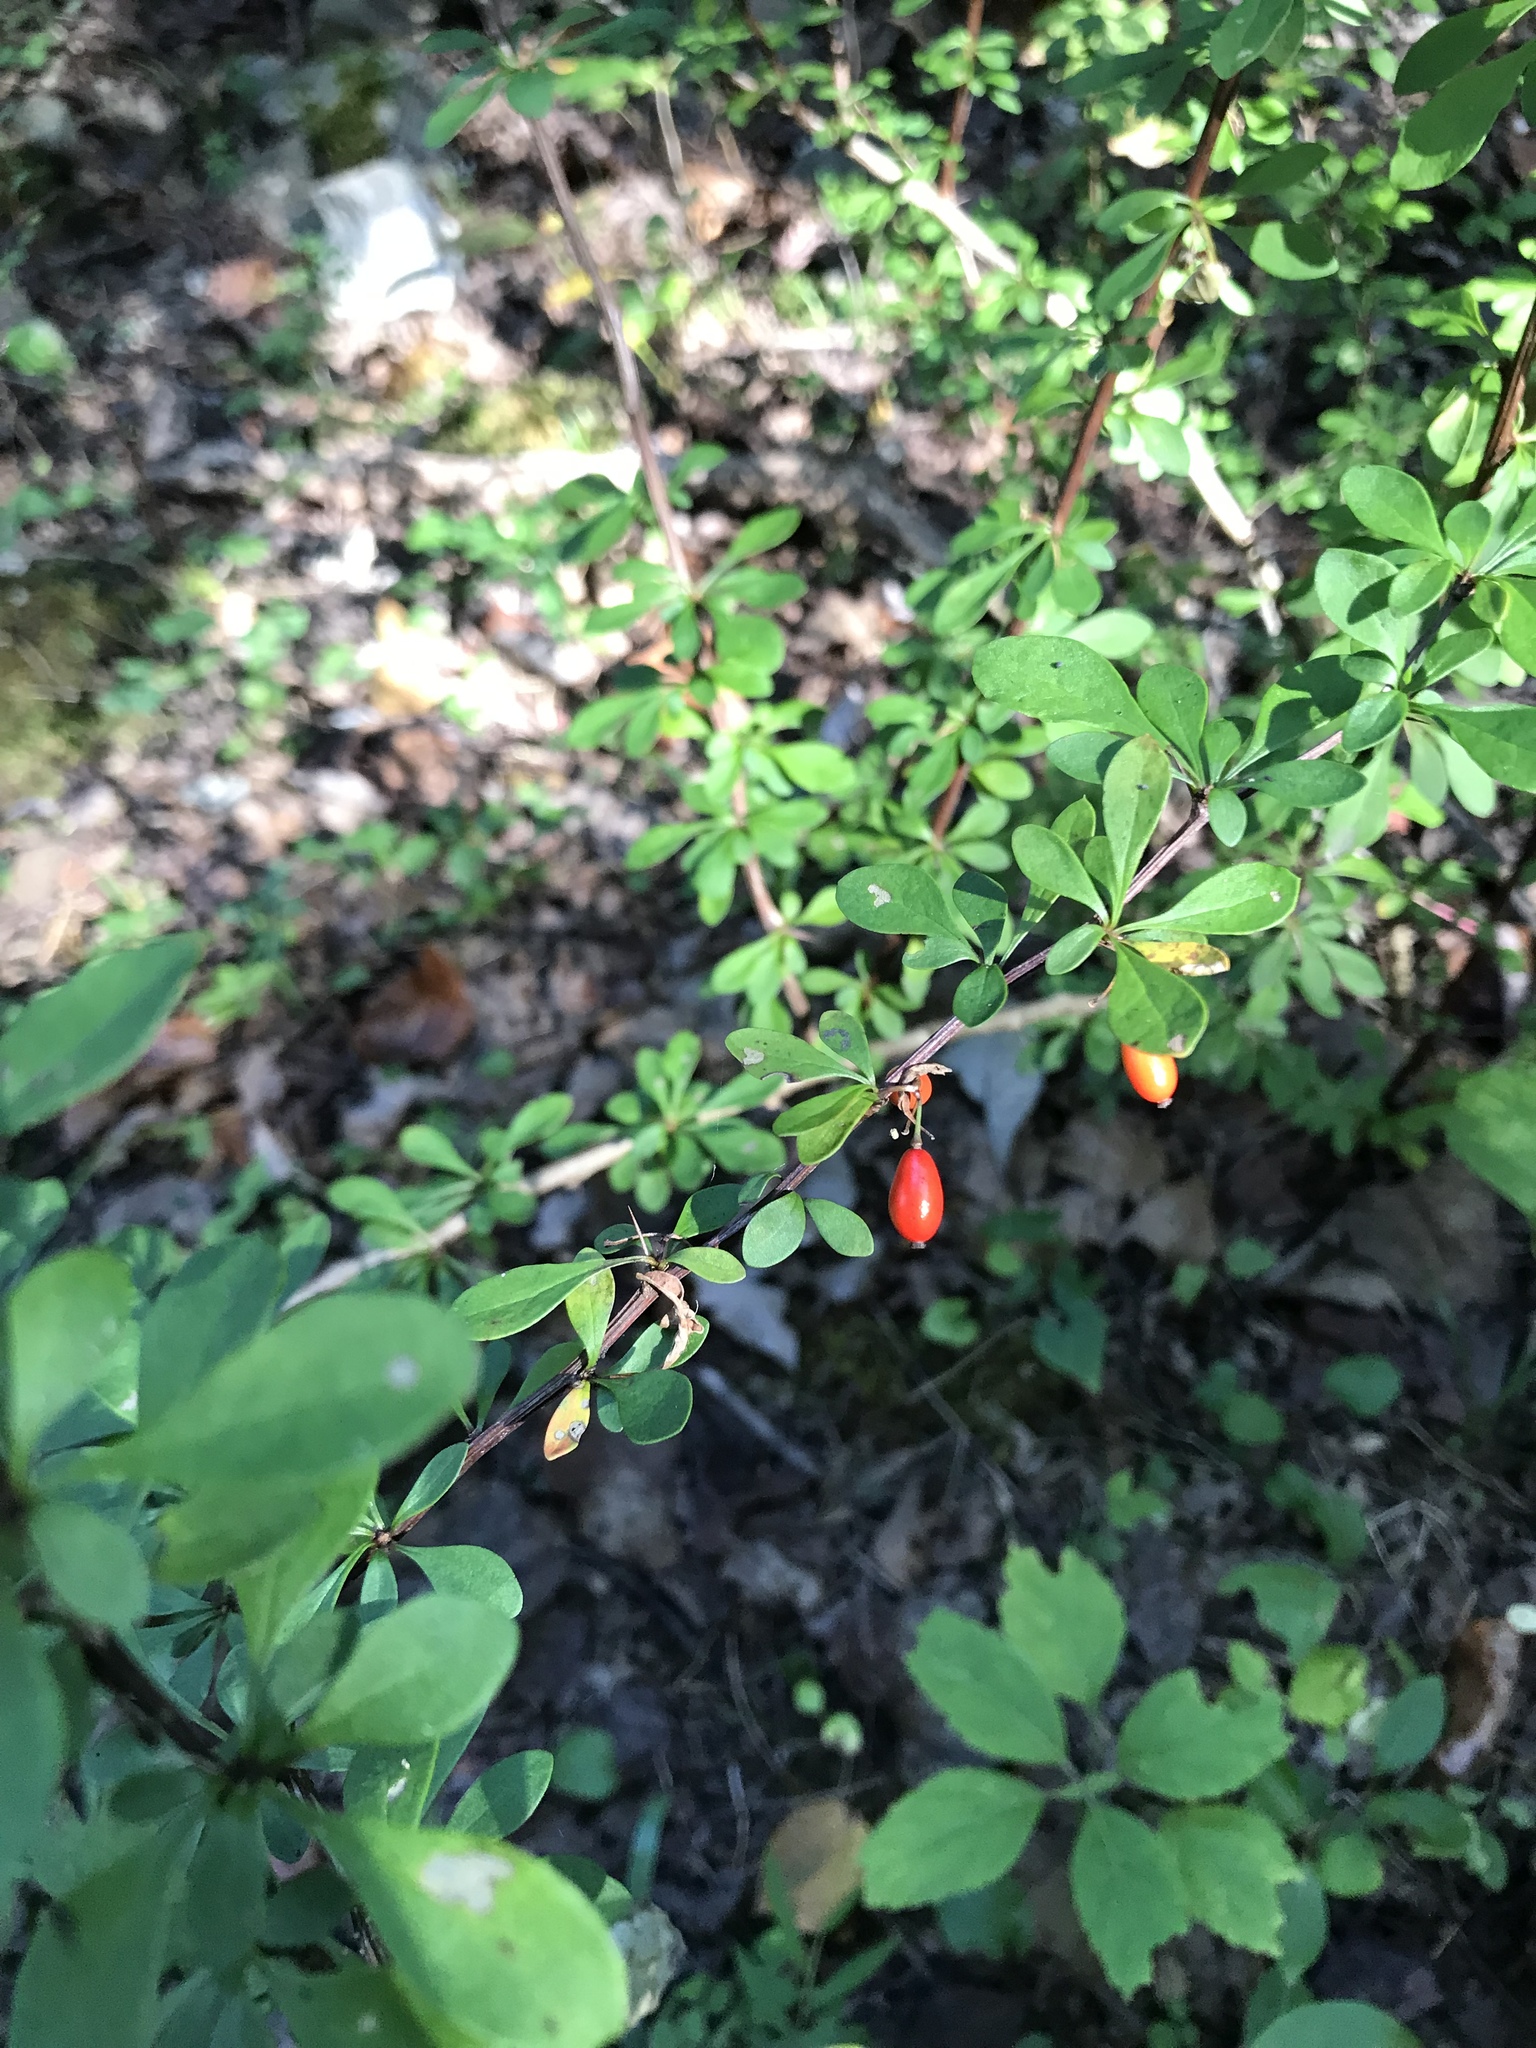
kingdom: Plantae
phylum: Tracheophyta
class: Magnoliopsida
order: Ranunculales
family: Berberidaceae
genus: Berberis
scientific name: Berberis thunbergii
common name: Japanese barberry
